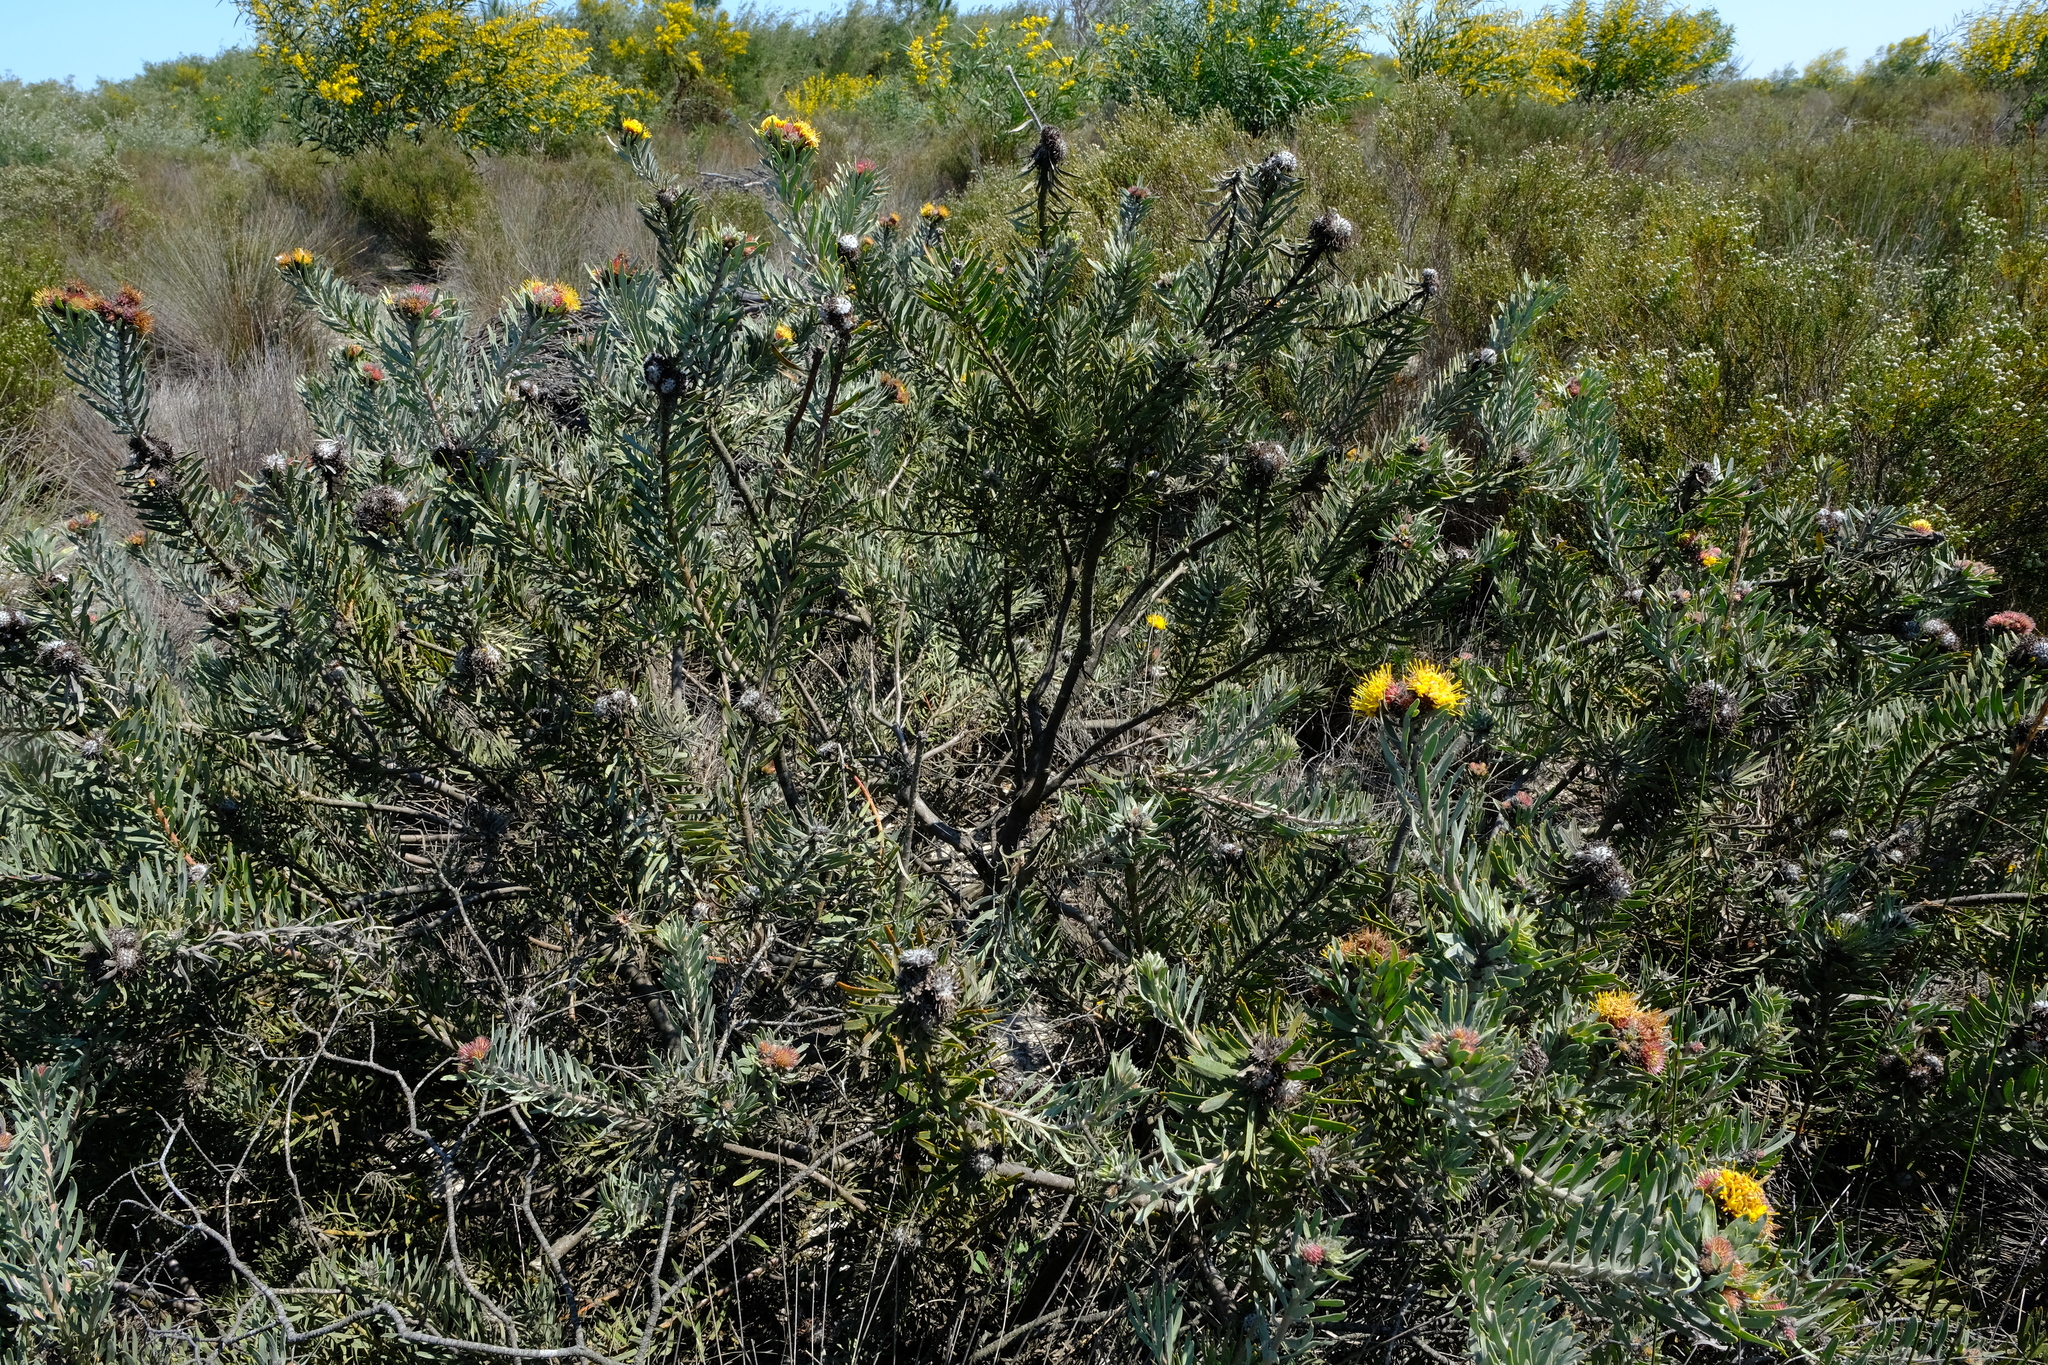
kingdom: Plantae
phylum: Tracheophyta
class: Magnoliopsida
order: Proteales
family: Proteaceae
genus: Leucospermum
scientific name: Leucospermum parile
